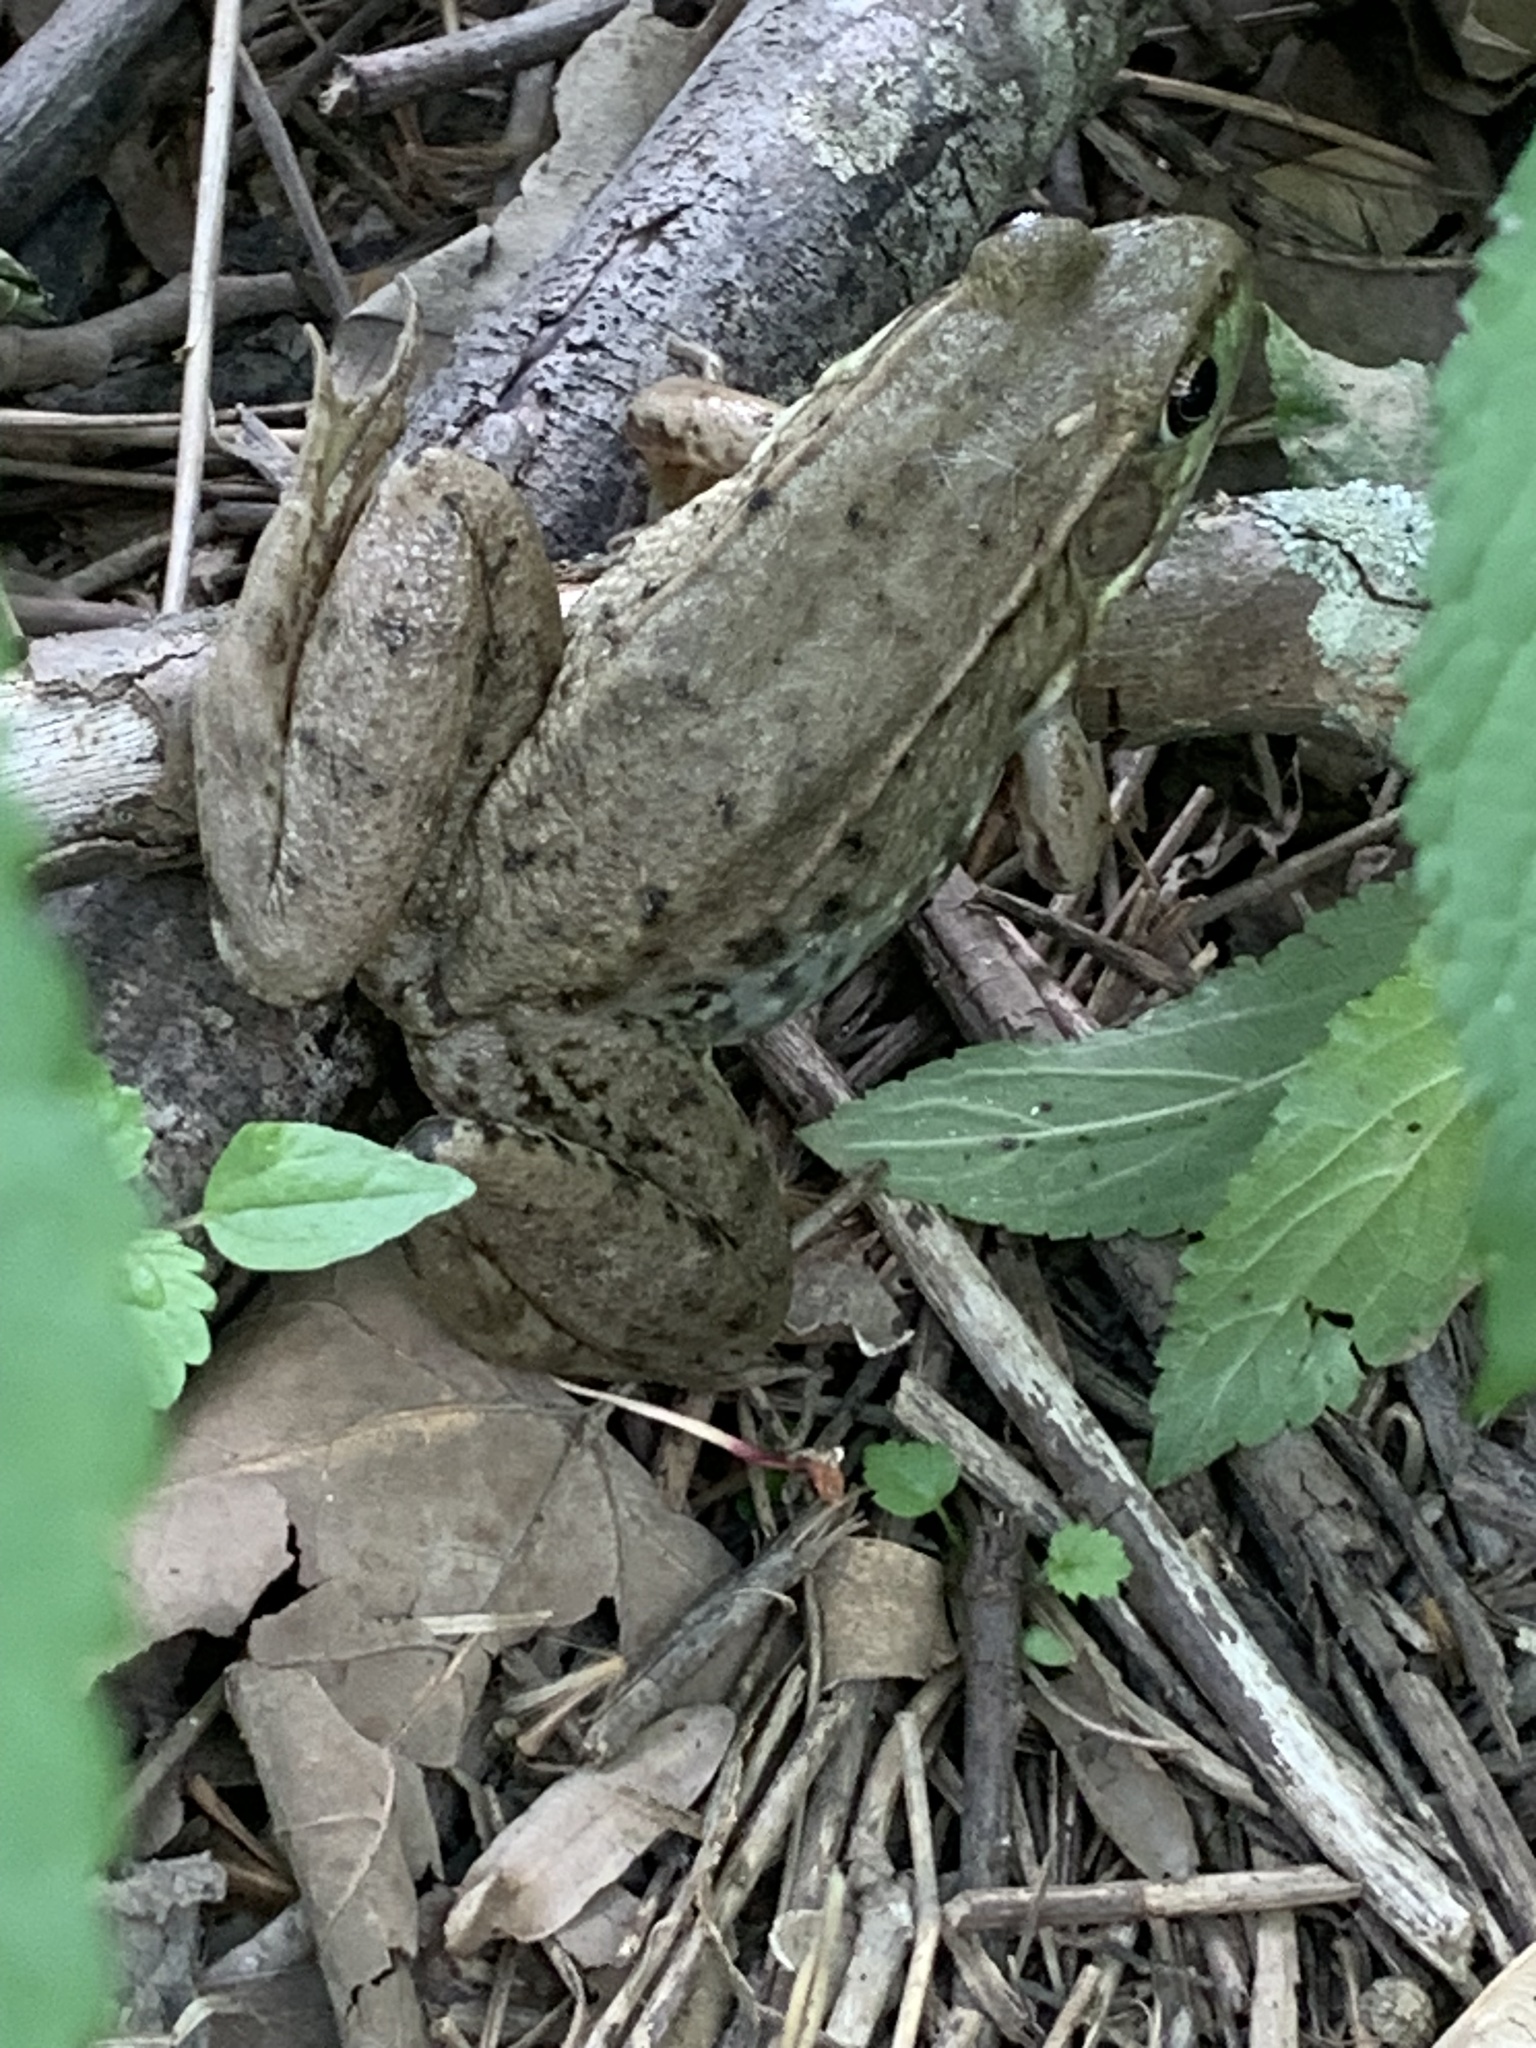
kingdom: Animalia
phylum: Chordata
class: Amphibia
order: Anura
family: Ranidae
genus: Lithobates
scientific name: Lithobates clamitans
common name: Green frog
